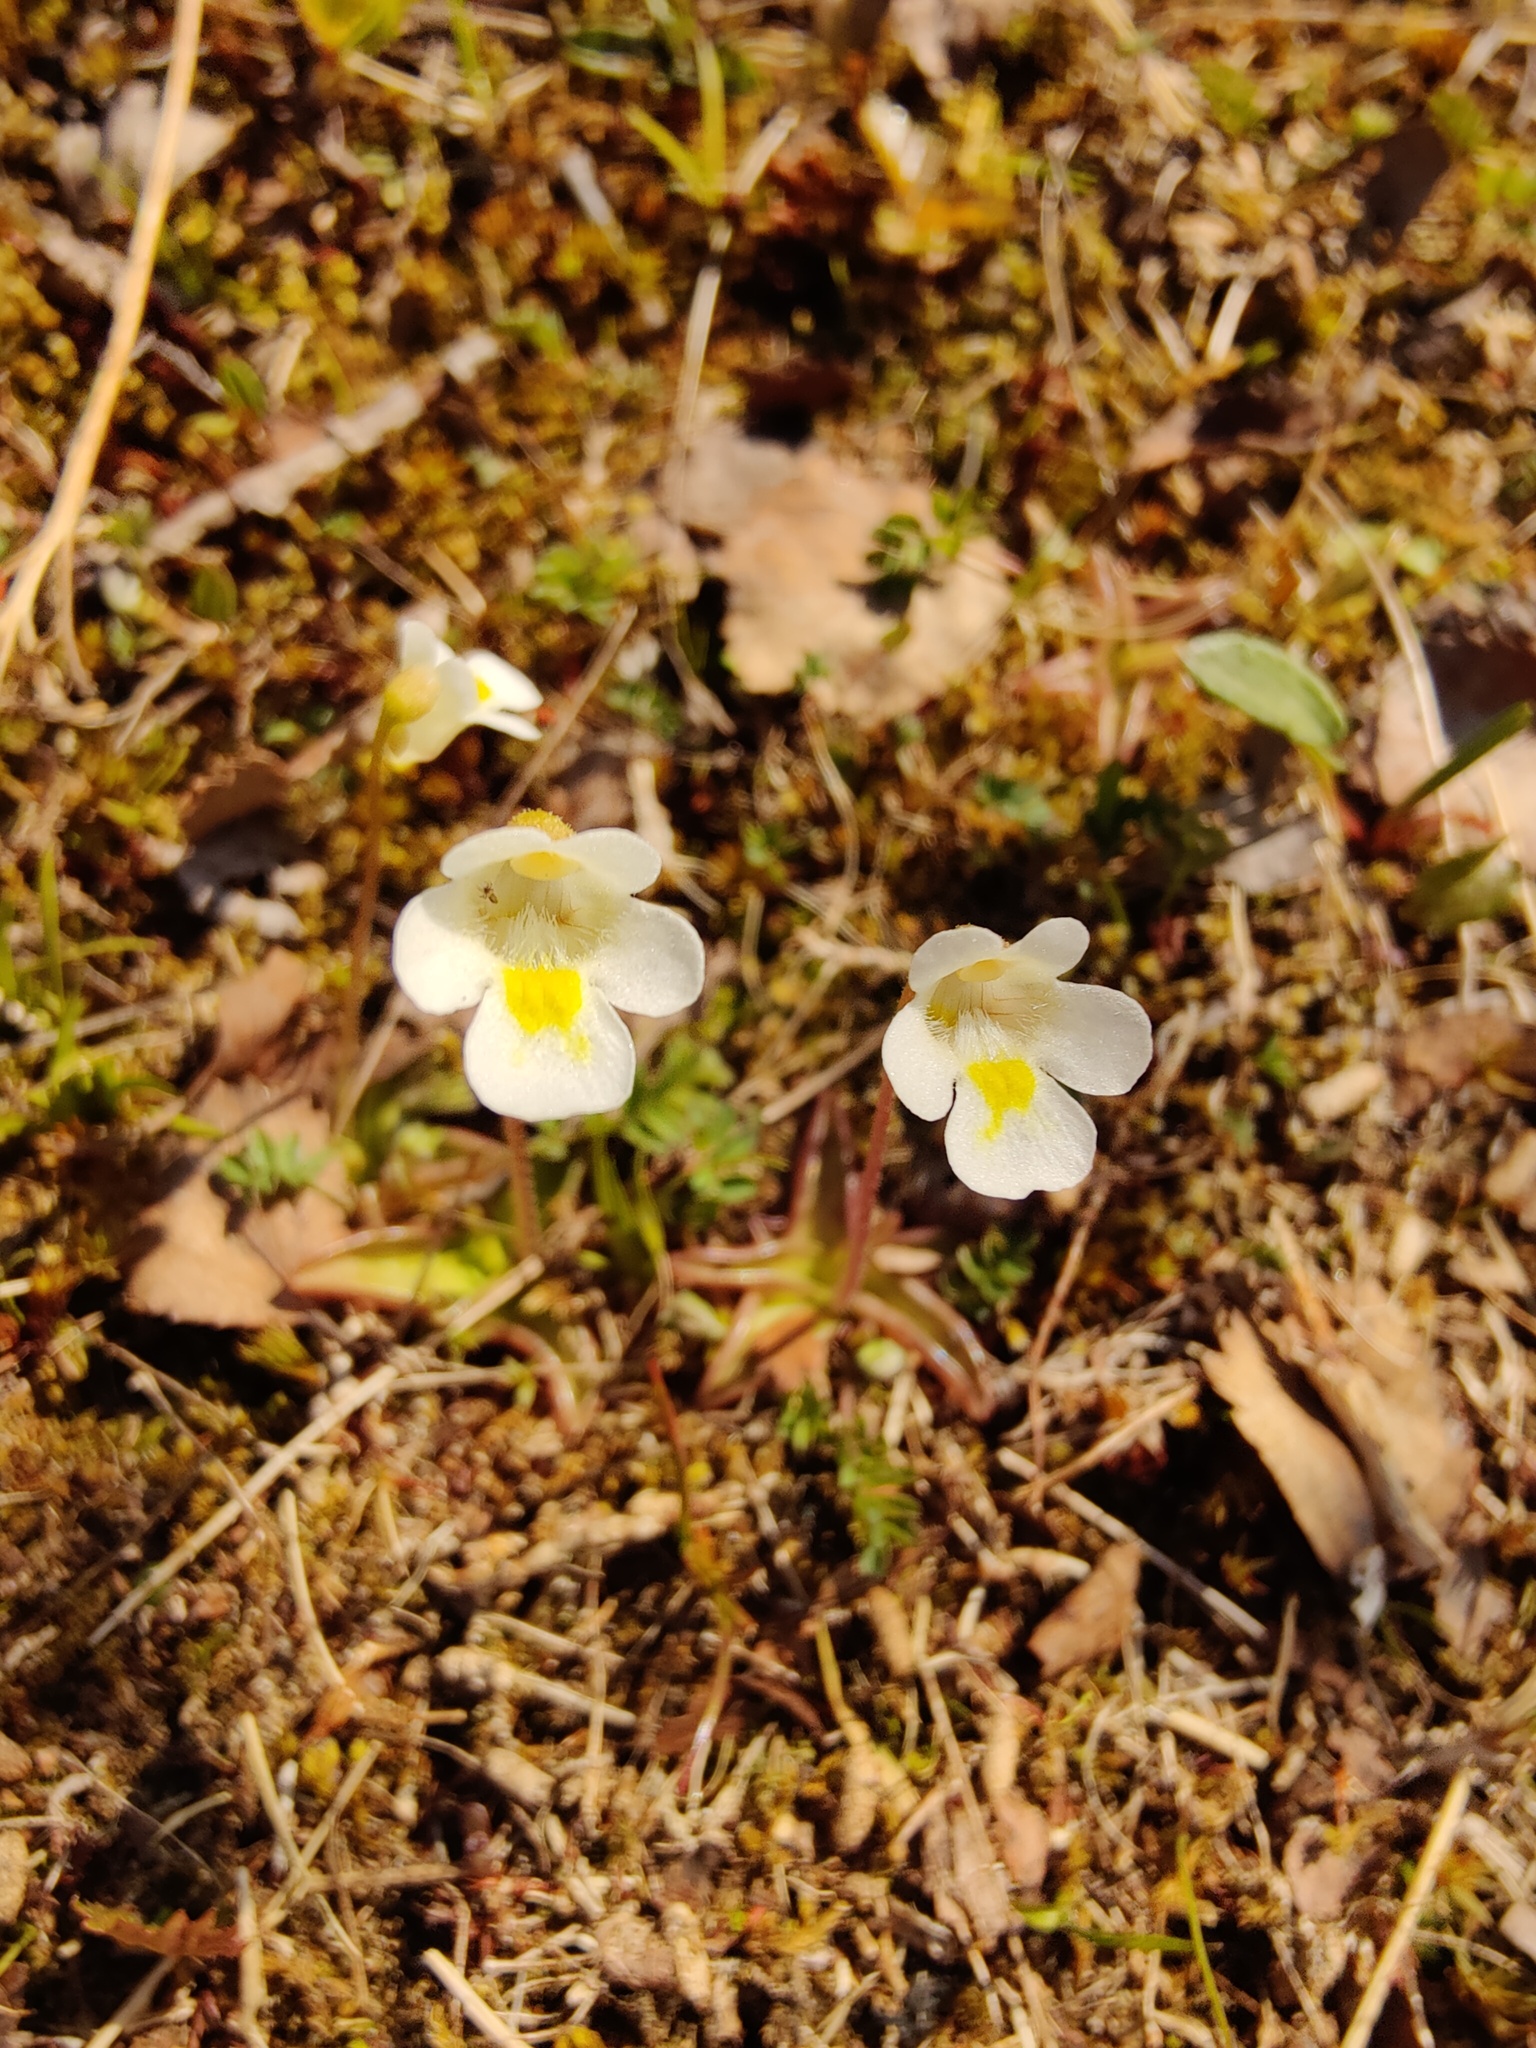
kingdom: Plantae
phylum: Tracheophyta
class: Magnoliopsida
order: Lamiales
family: Lentibulariaceae
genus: Pinguicula
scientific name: Pinguicula alpina
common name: Alpine butterwort
